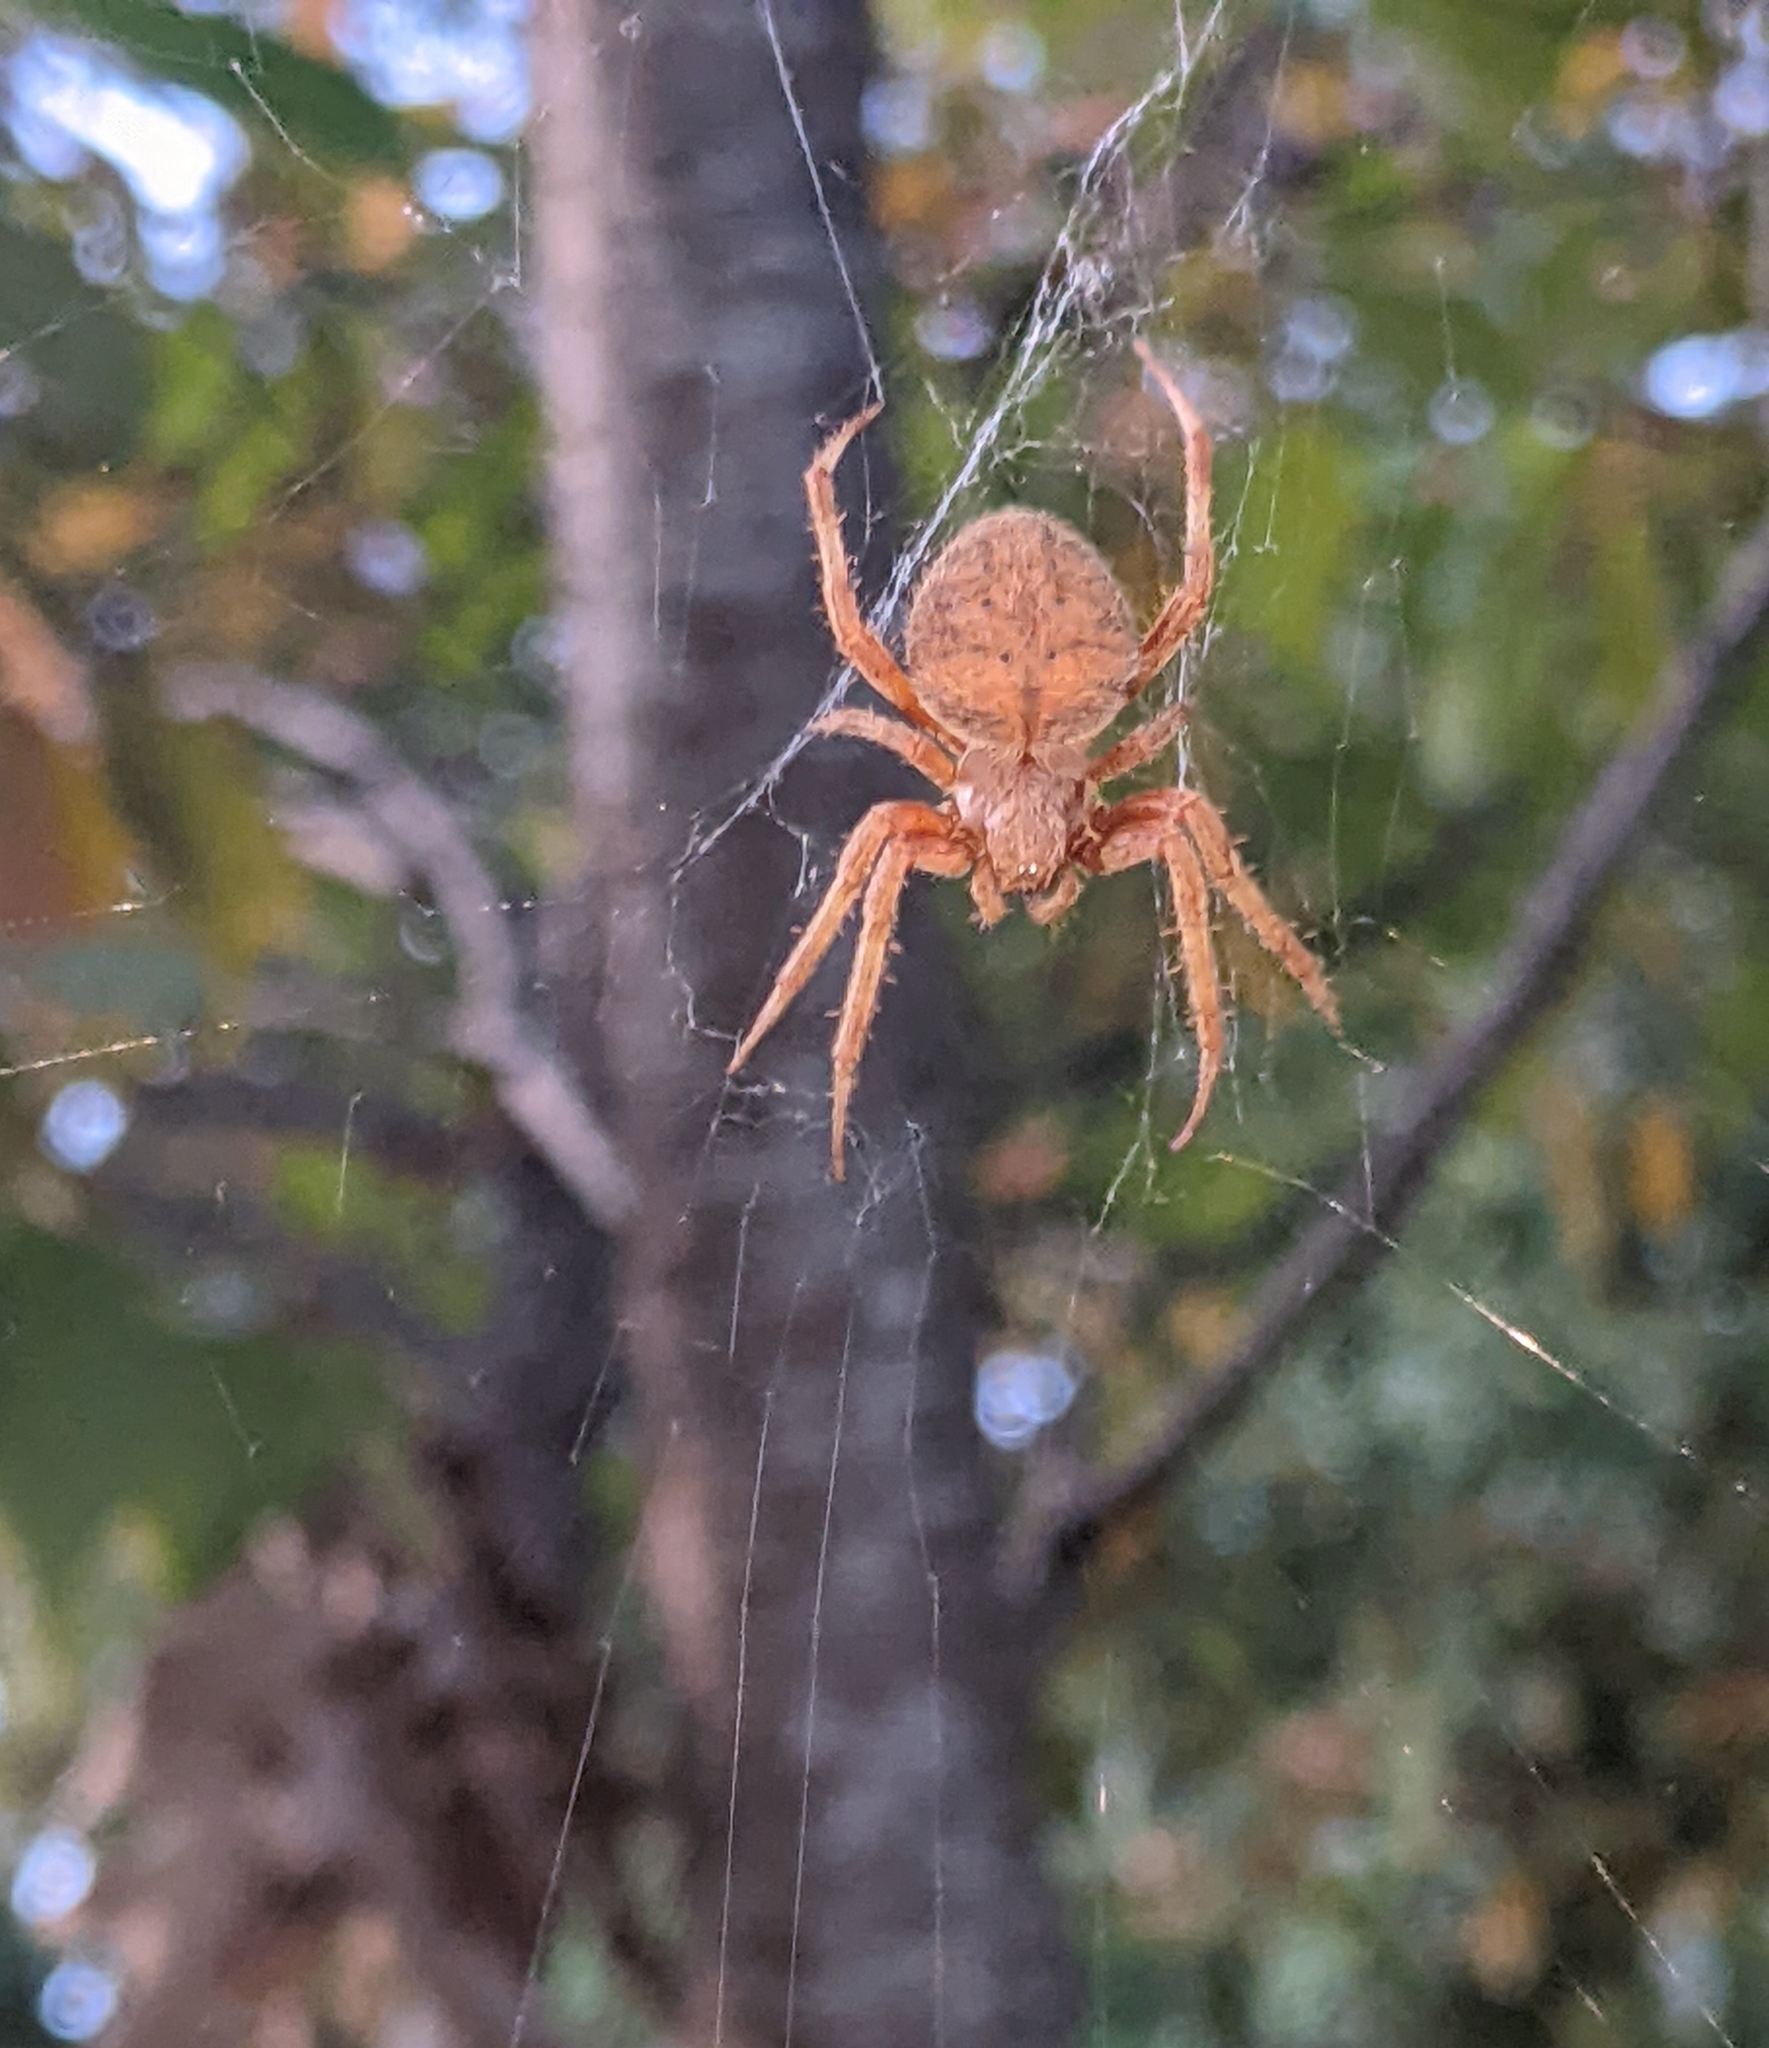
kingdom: Animalia
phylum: Arthropoda
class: Arachnida
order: Araneae
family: Araneidae
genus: Neoscona
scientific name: Neoscona crucifera
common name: Spotted orbweaver
